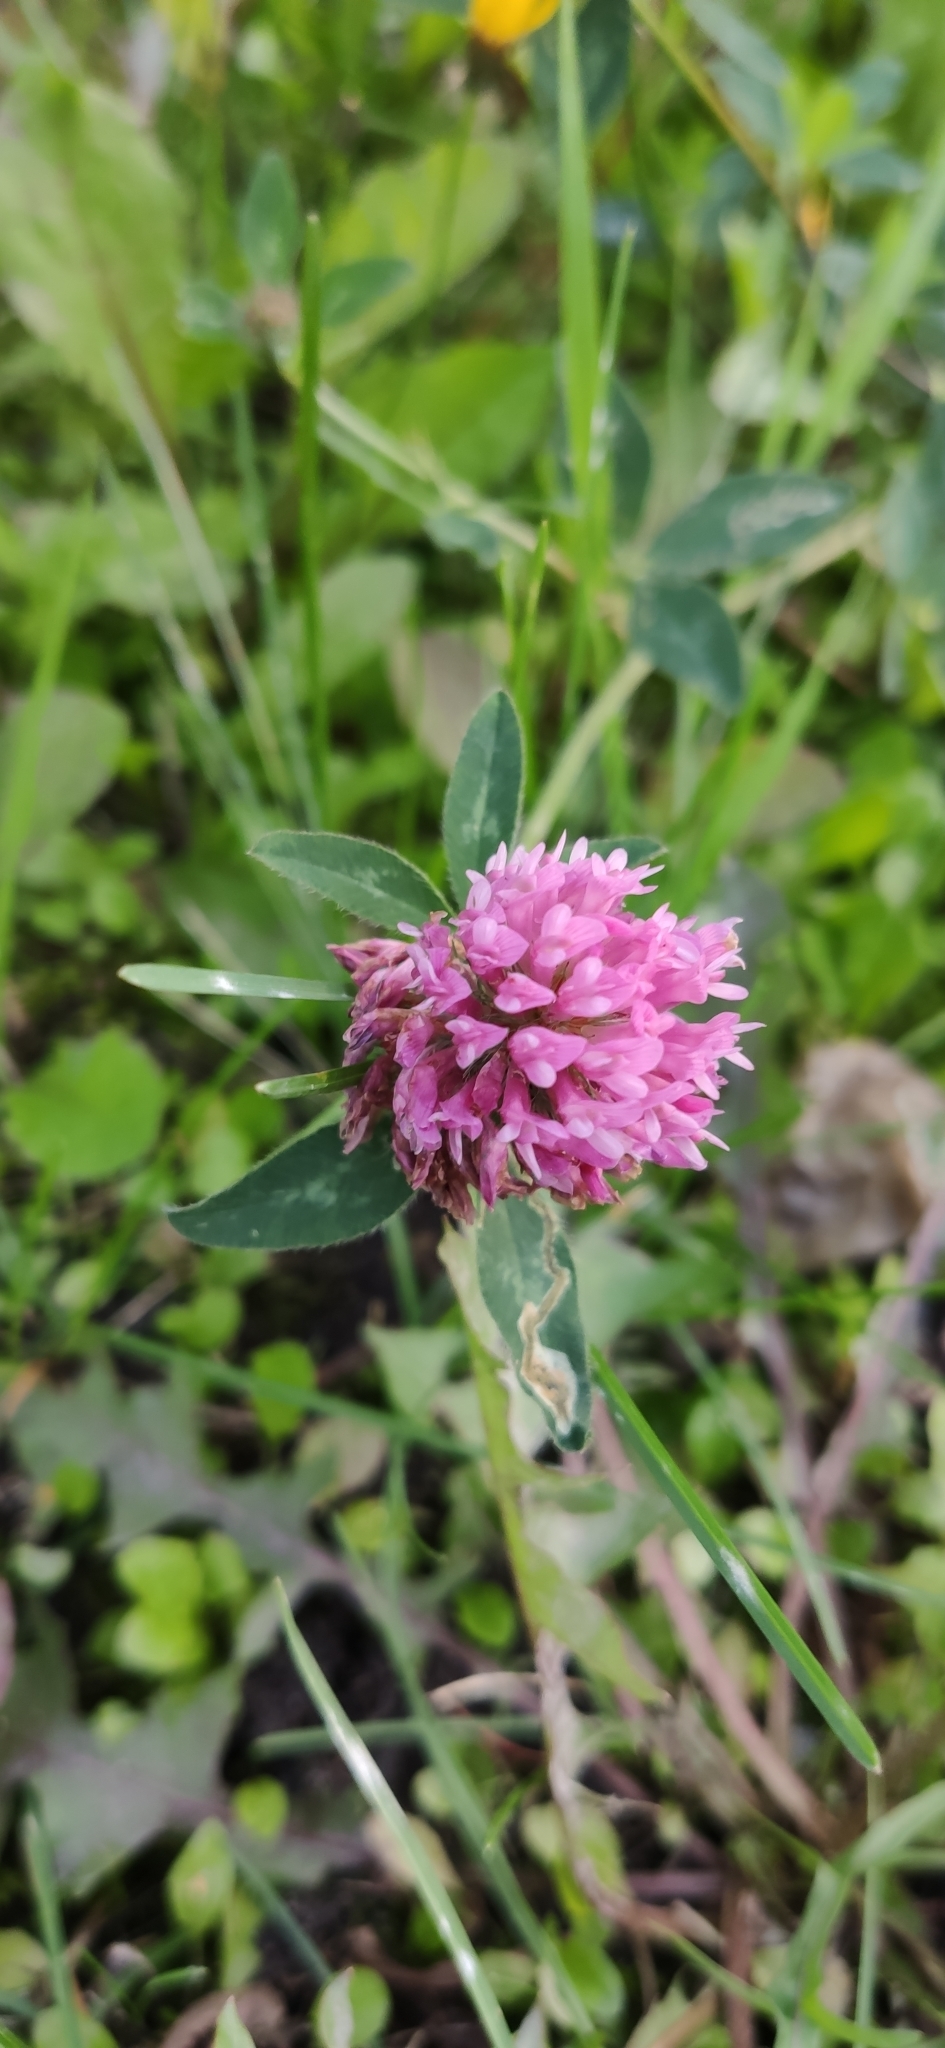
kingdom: Plantae
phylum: Tracheophyta
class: Magnoliopsida
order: Fabales
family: Fabaceae
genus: Trifolium
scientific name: Trifolium pratense
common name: Red clover
